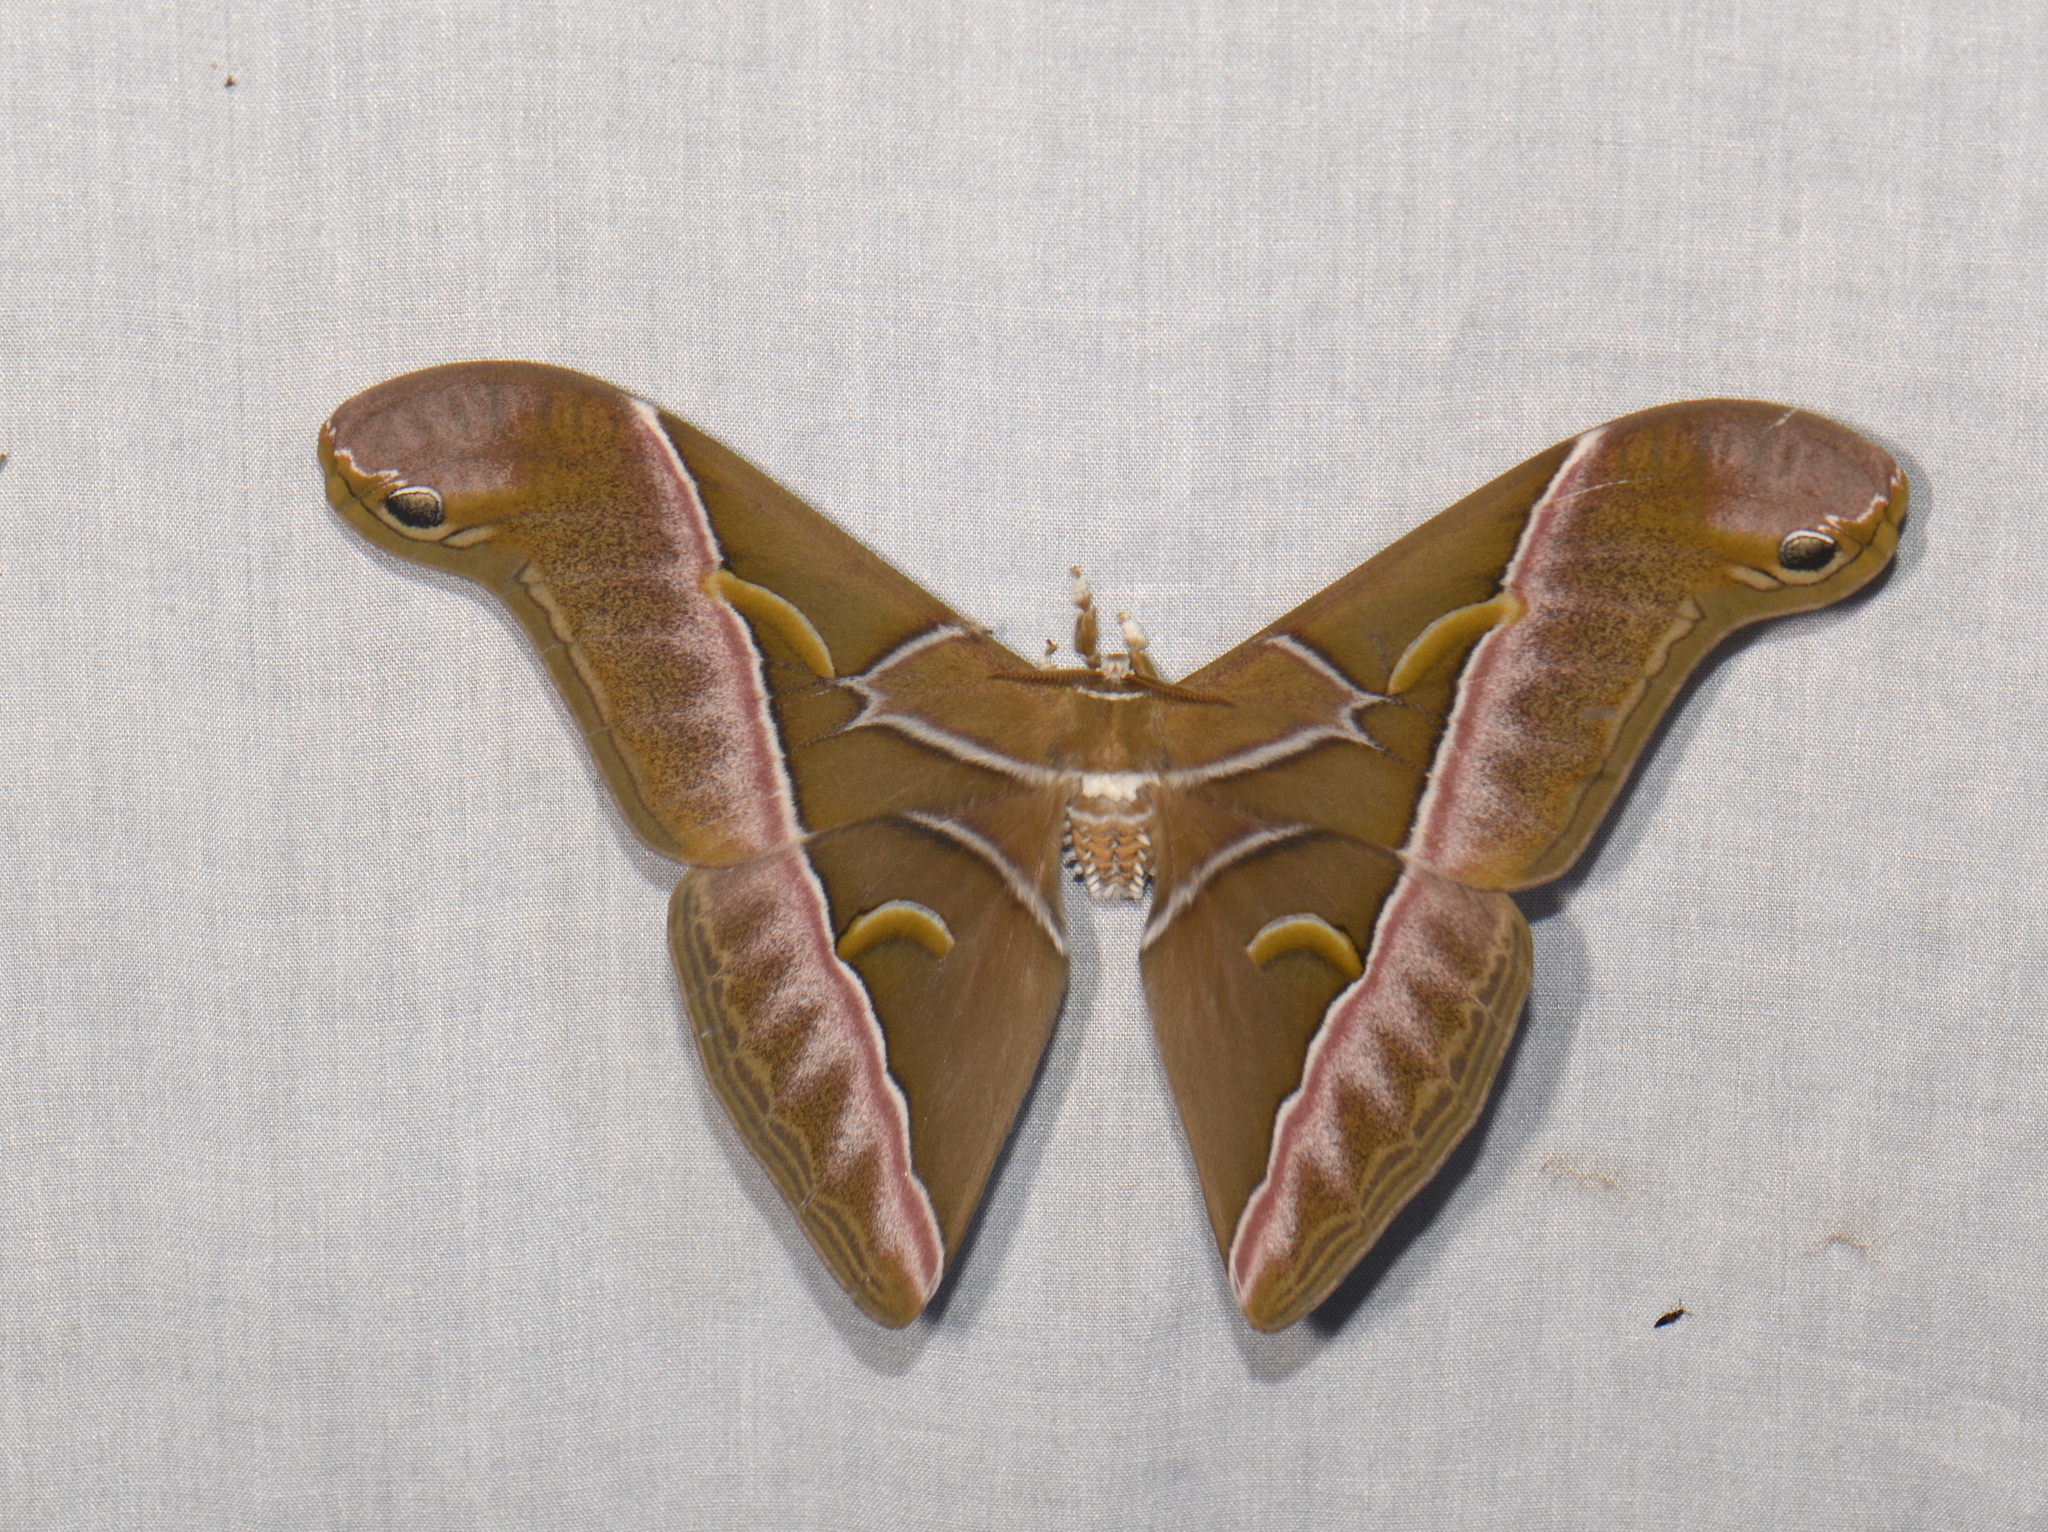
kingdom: Animalia
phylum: Arthropoda
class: Insecta
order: Lepidoptera
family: Saturniidae
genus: Samia
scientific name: Samia insularis
